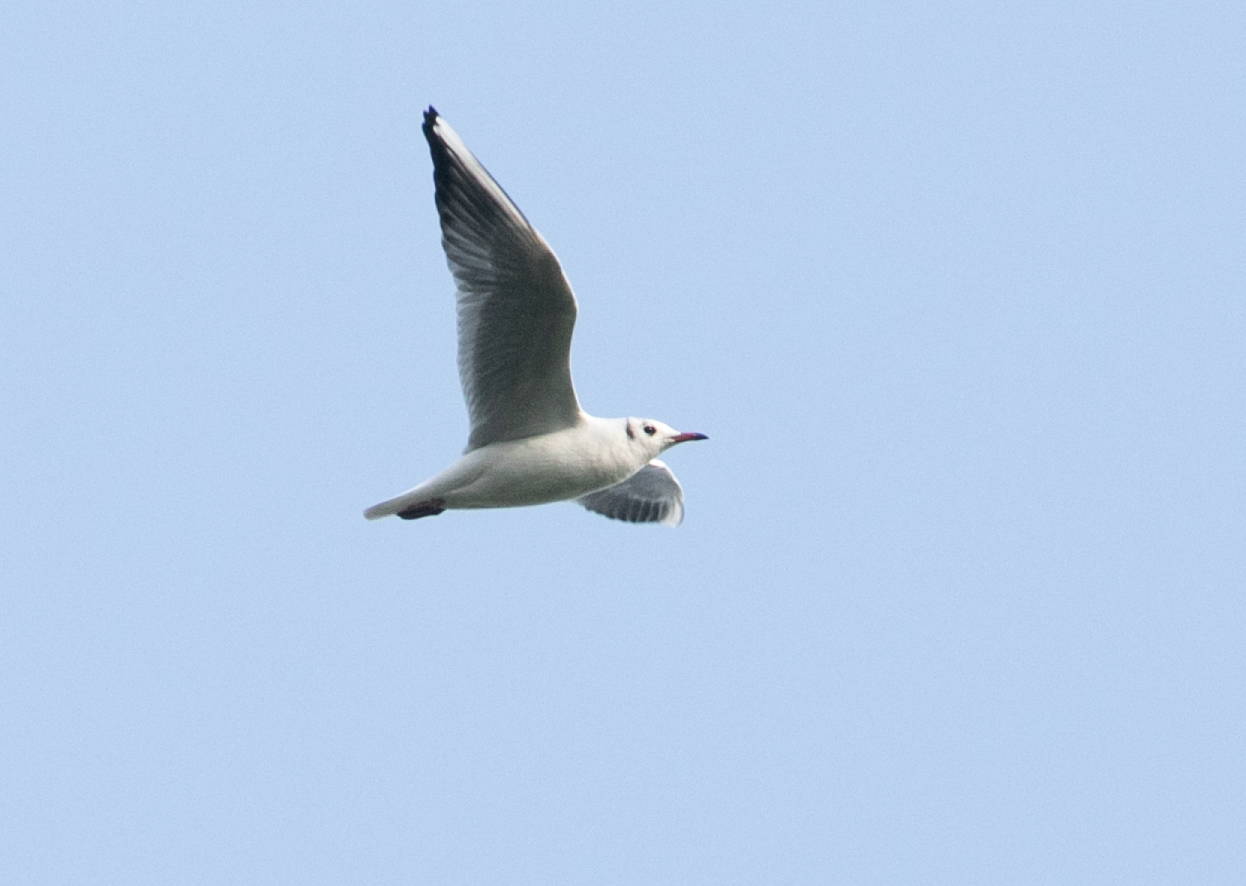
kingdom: Animalia
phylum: Chordata
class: Aves
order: Charadriiformes
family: Laridae
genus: Chroicocephalus
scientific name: Chroicocephalus ridibundus
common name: Black-headed gull
